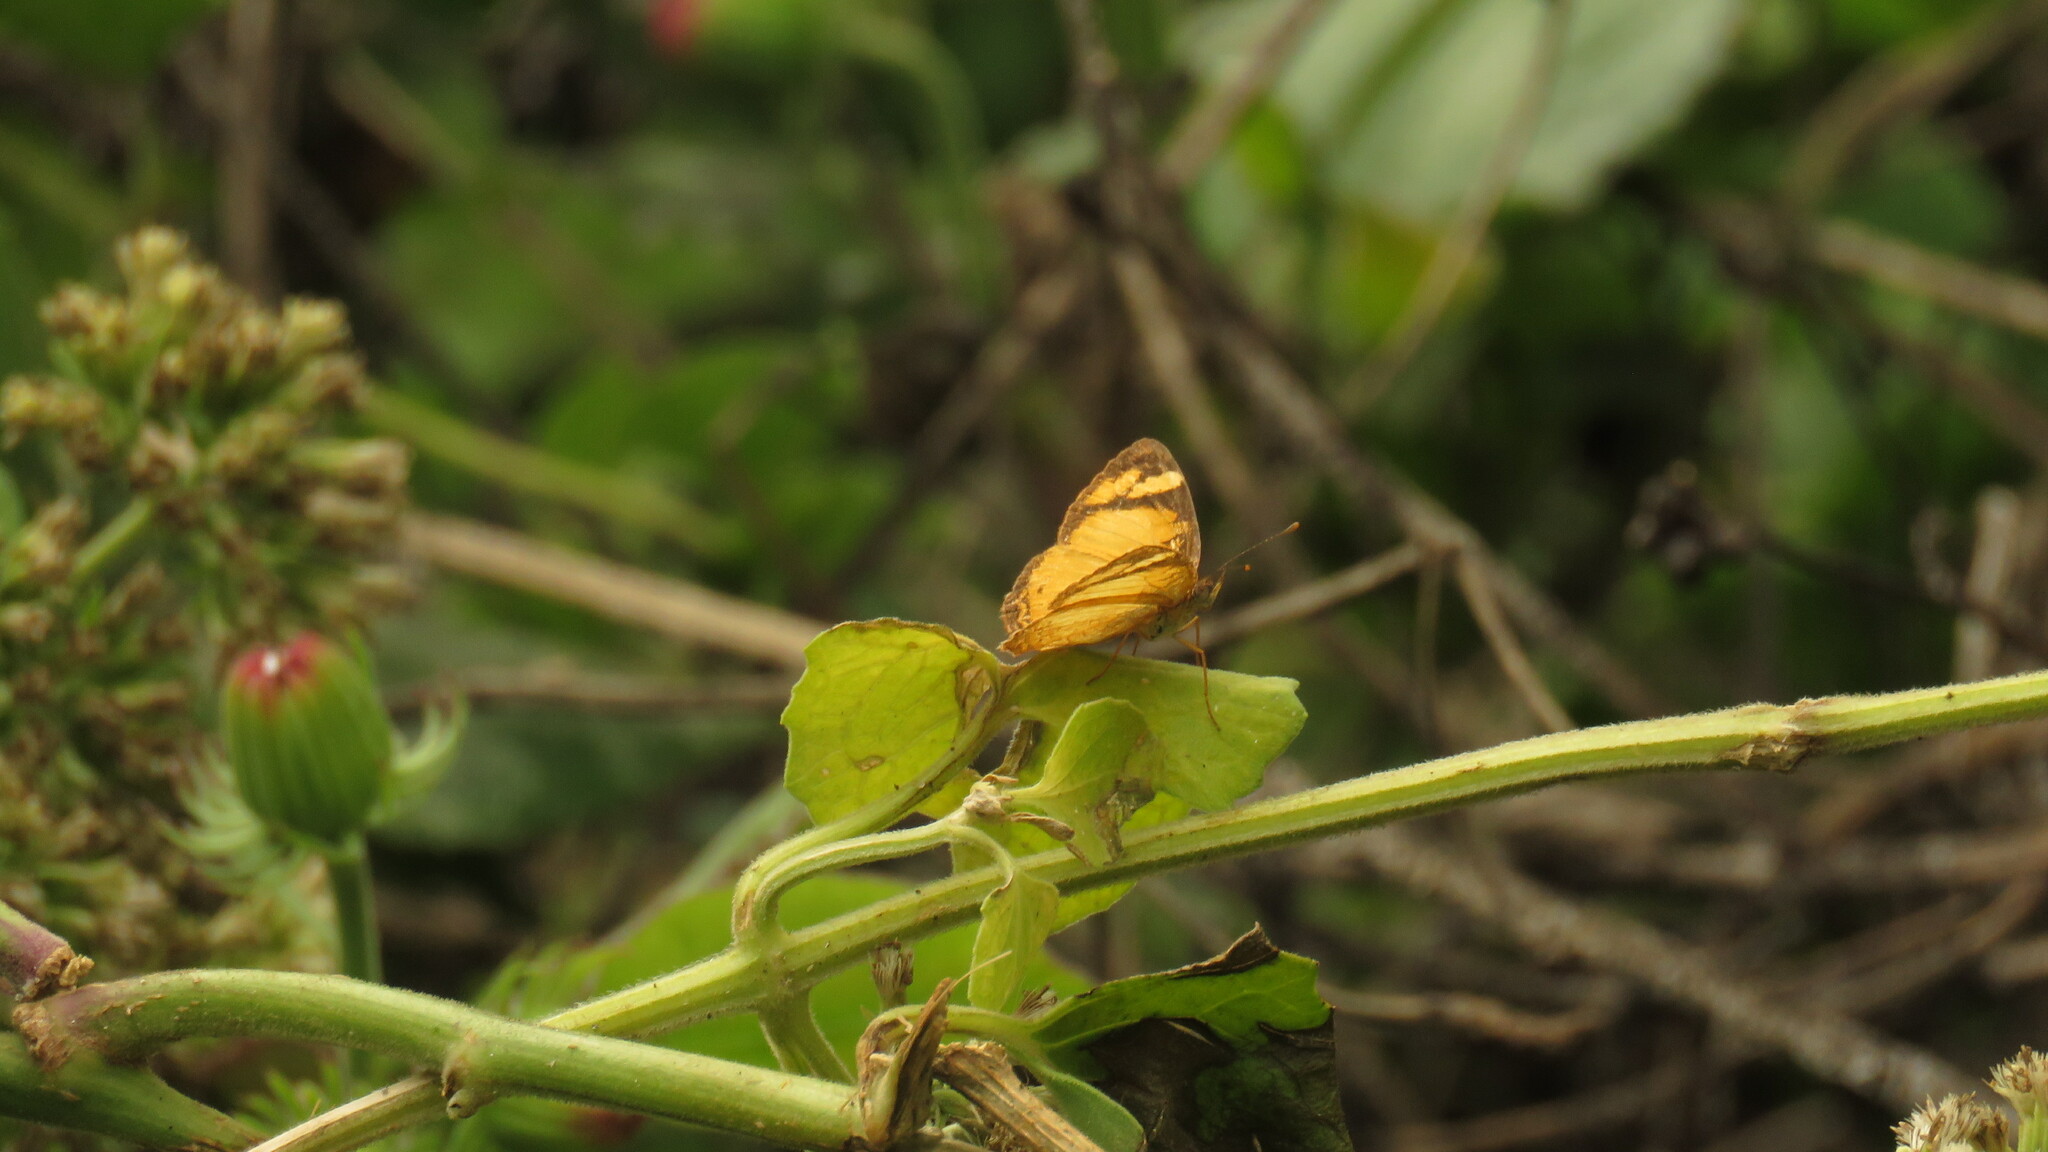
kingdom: Animalia
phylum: Arthropoda
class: Insecta
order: Lepidoptera
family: Nymphalidae
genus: Tegosa
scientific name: Tegosa claudina
